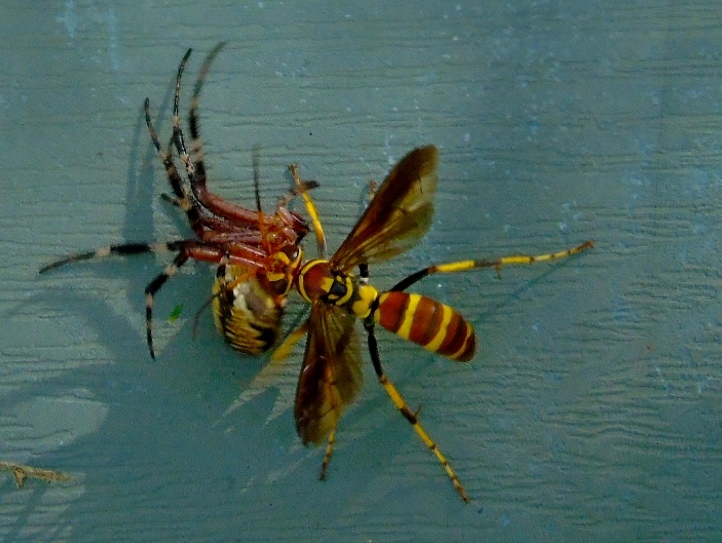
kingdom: Animalia
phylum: Arthropoda
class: Arachnida
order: Araneae
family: Araneidae
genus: Neoscona
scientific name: Neoscona oaxacensis
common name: Orb weavers
